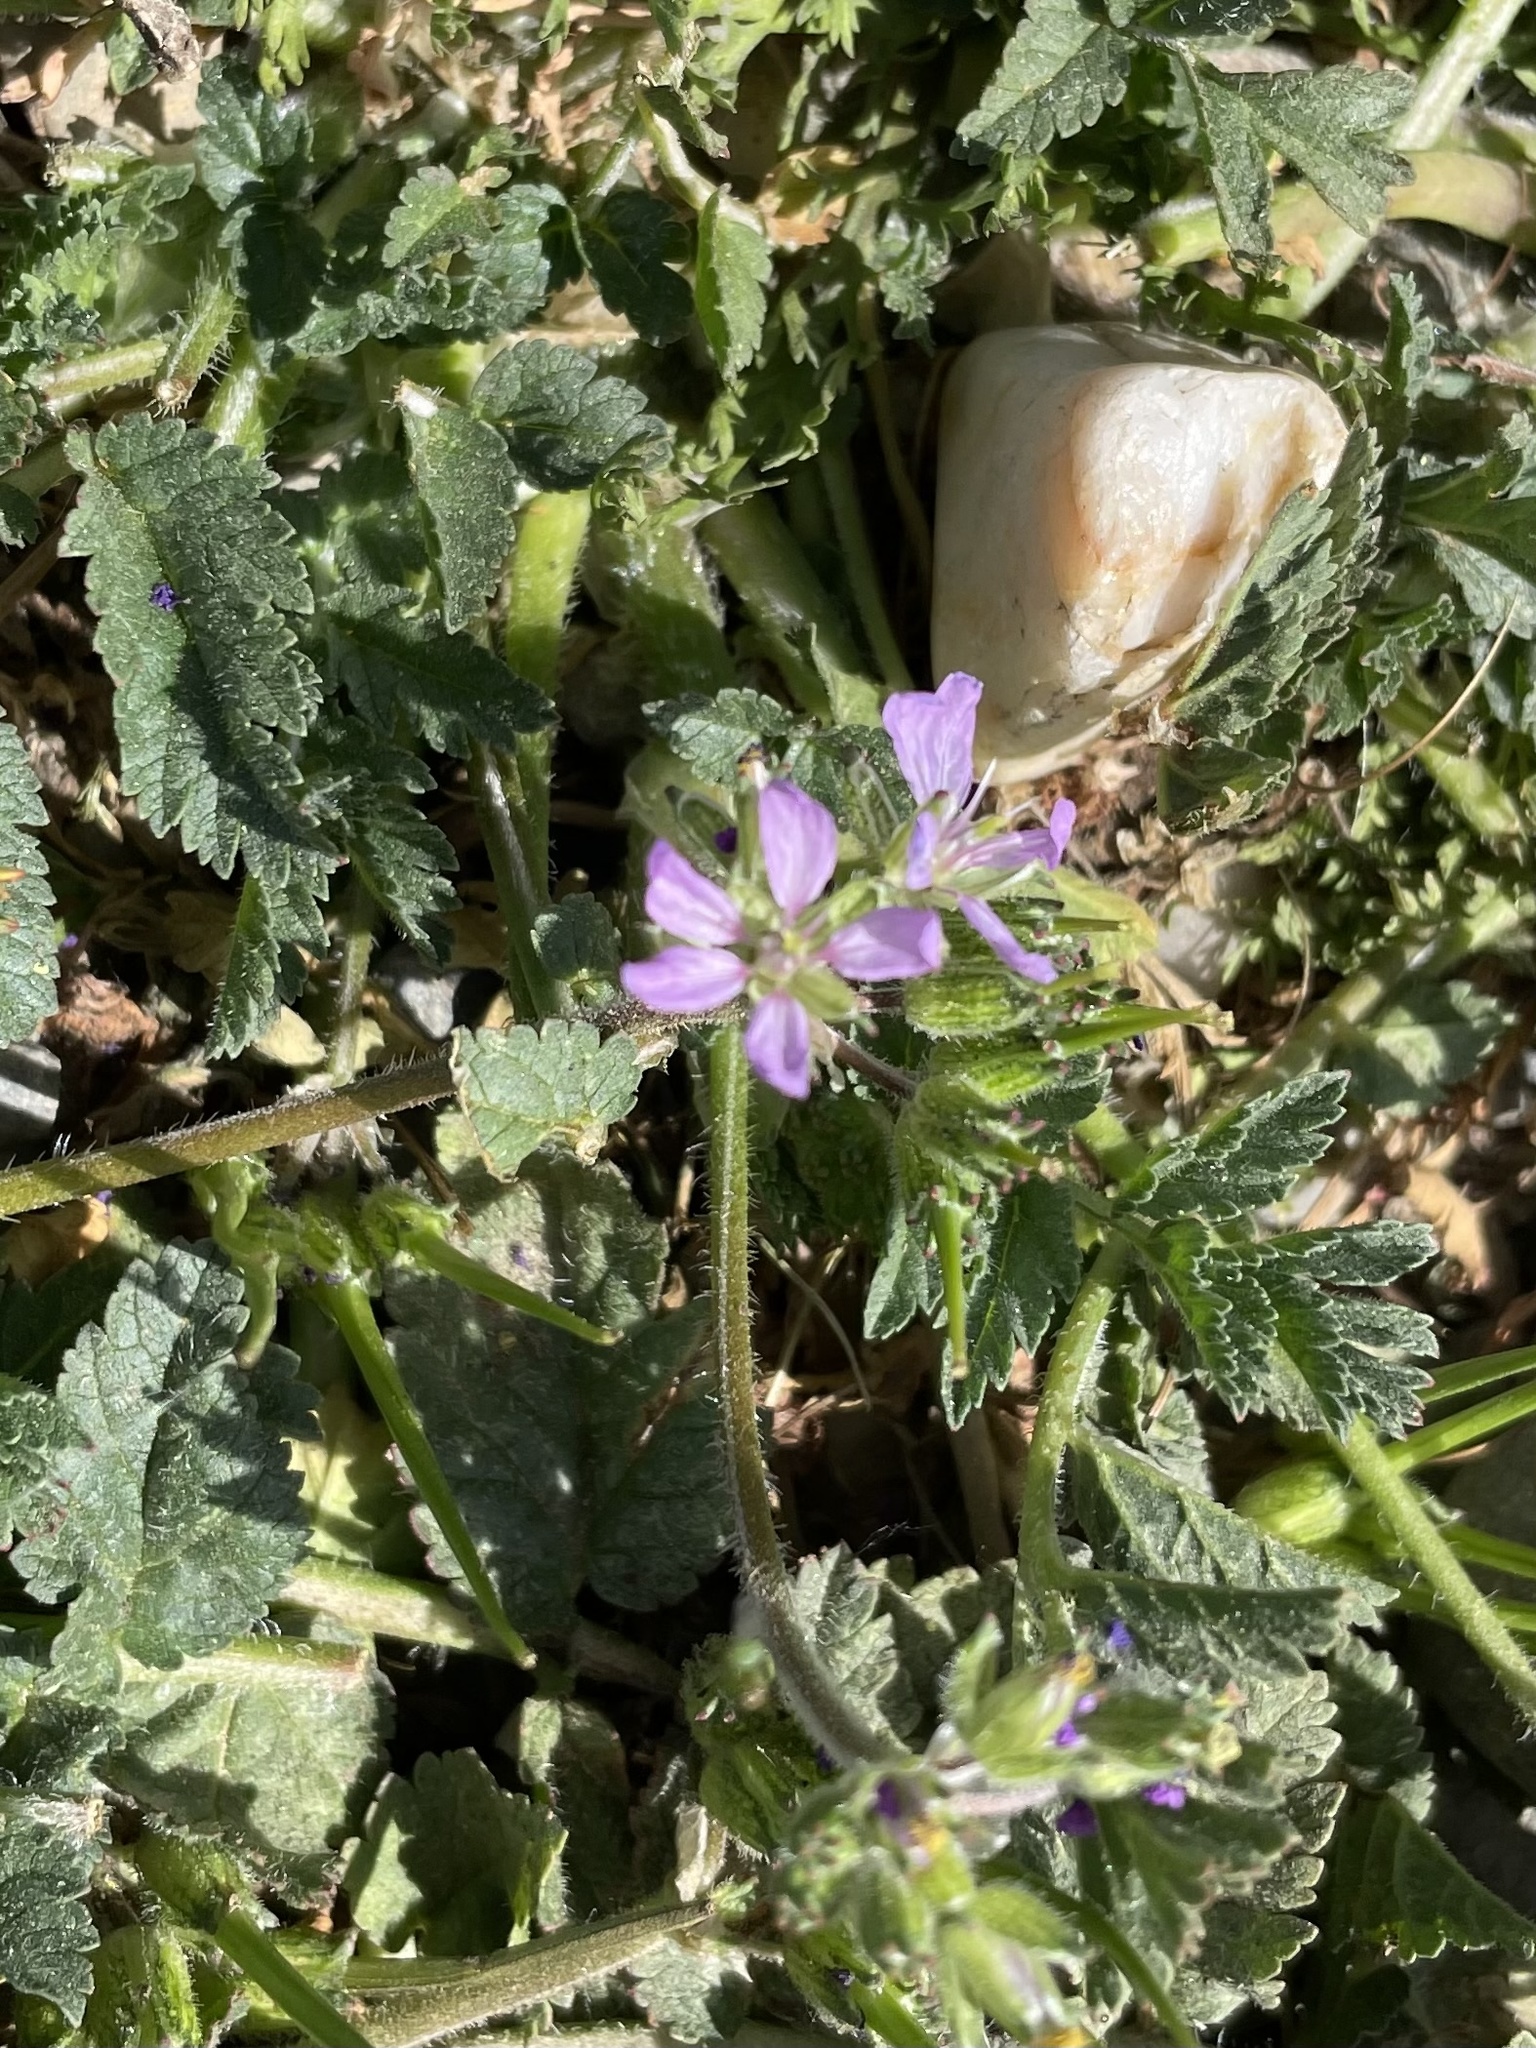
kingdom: Plantae
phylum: Tracheophyta
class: Magnoliopsida
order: Geraniales
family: Geraniaceae
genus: Erodium
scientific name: Erodium moschatum
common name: Musk stork's-bill
